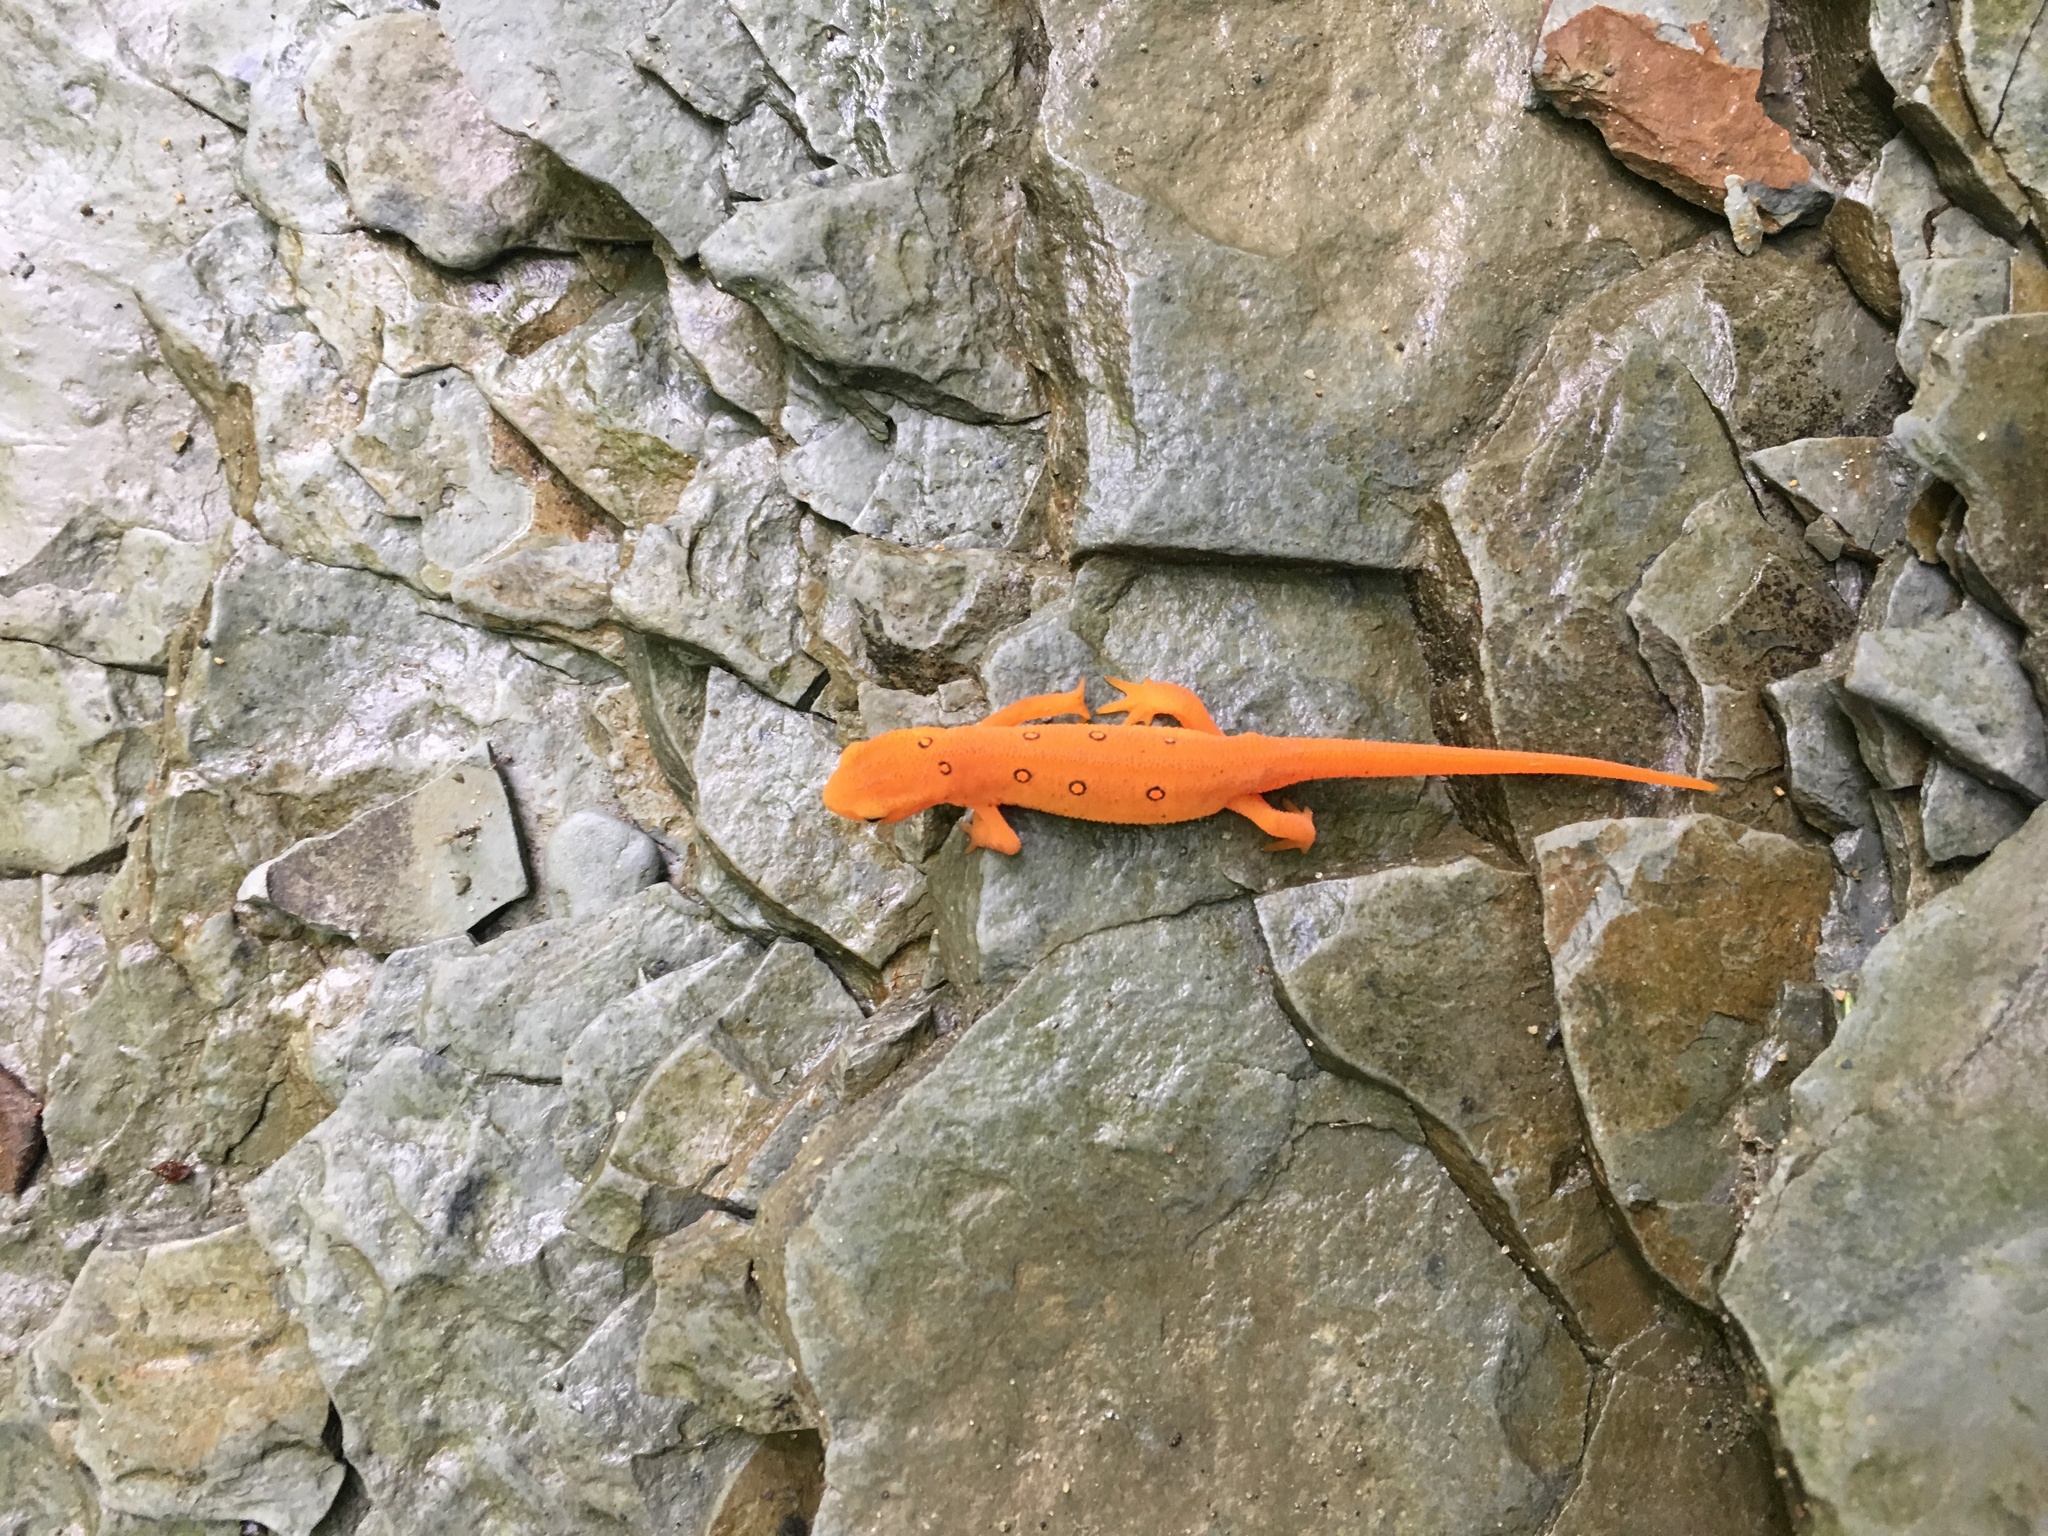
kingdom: Animalia
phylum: Chordata
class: Amphibia
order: Caudata
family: Salamandridae
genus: Notophthalmus
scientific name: Notophthalmus viridescens
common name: Eastern newt
